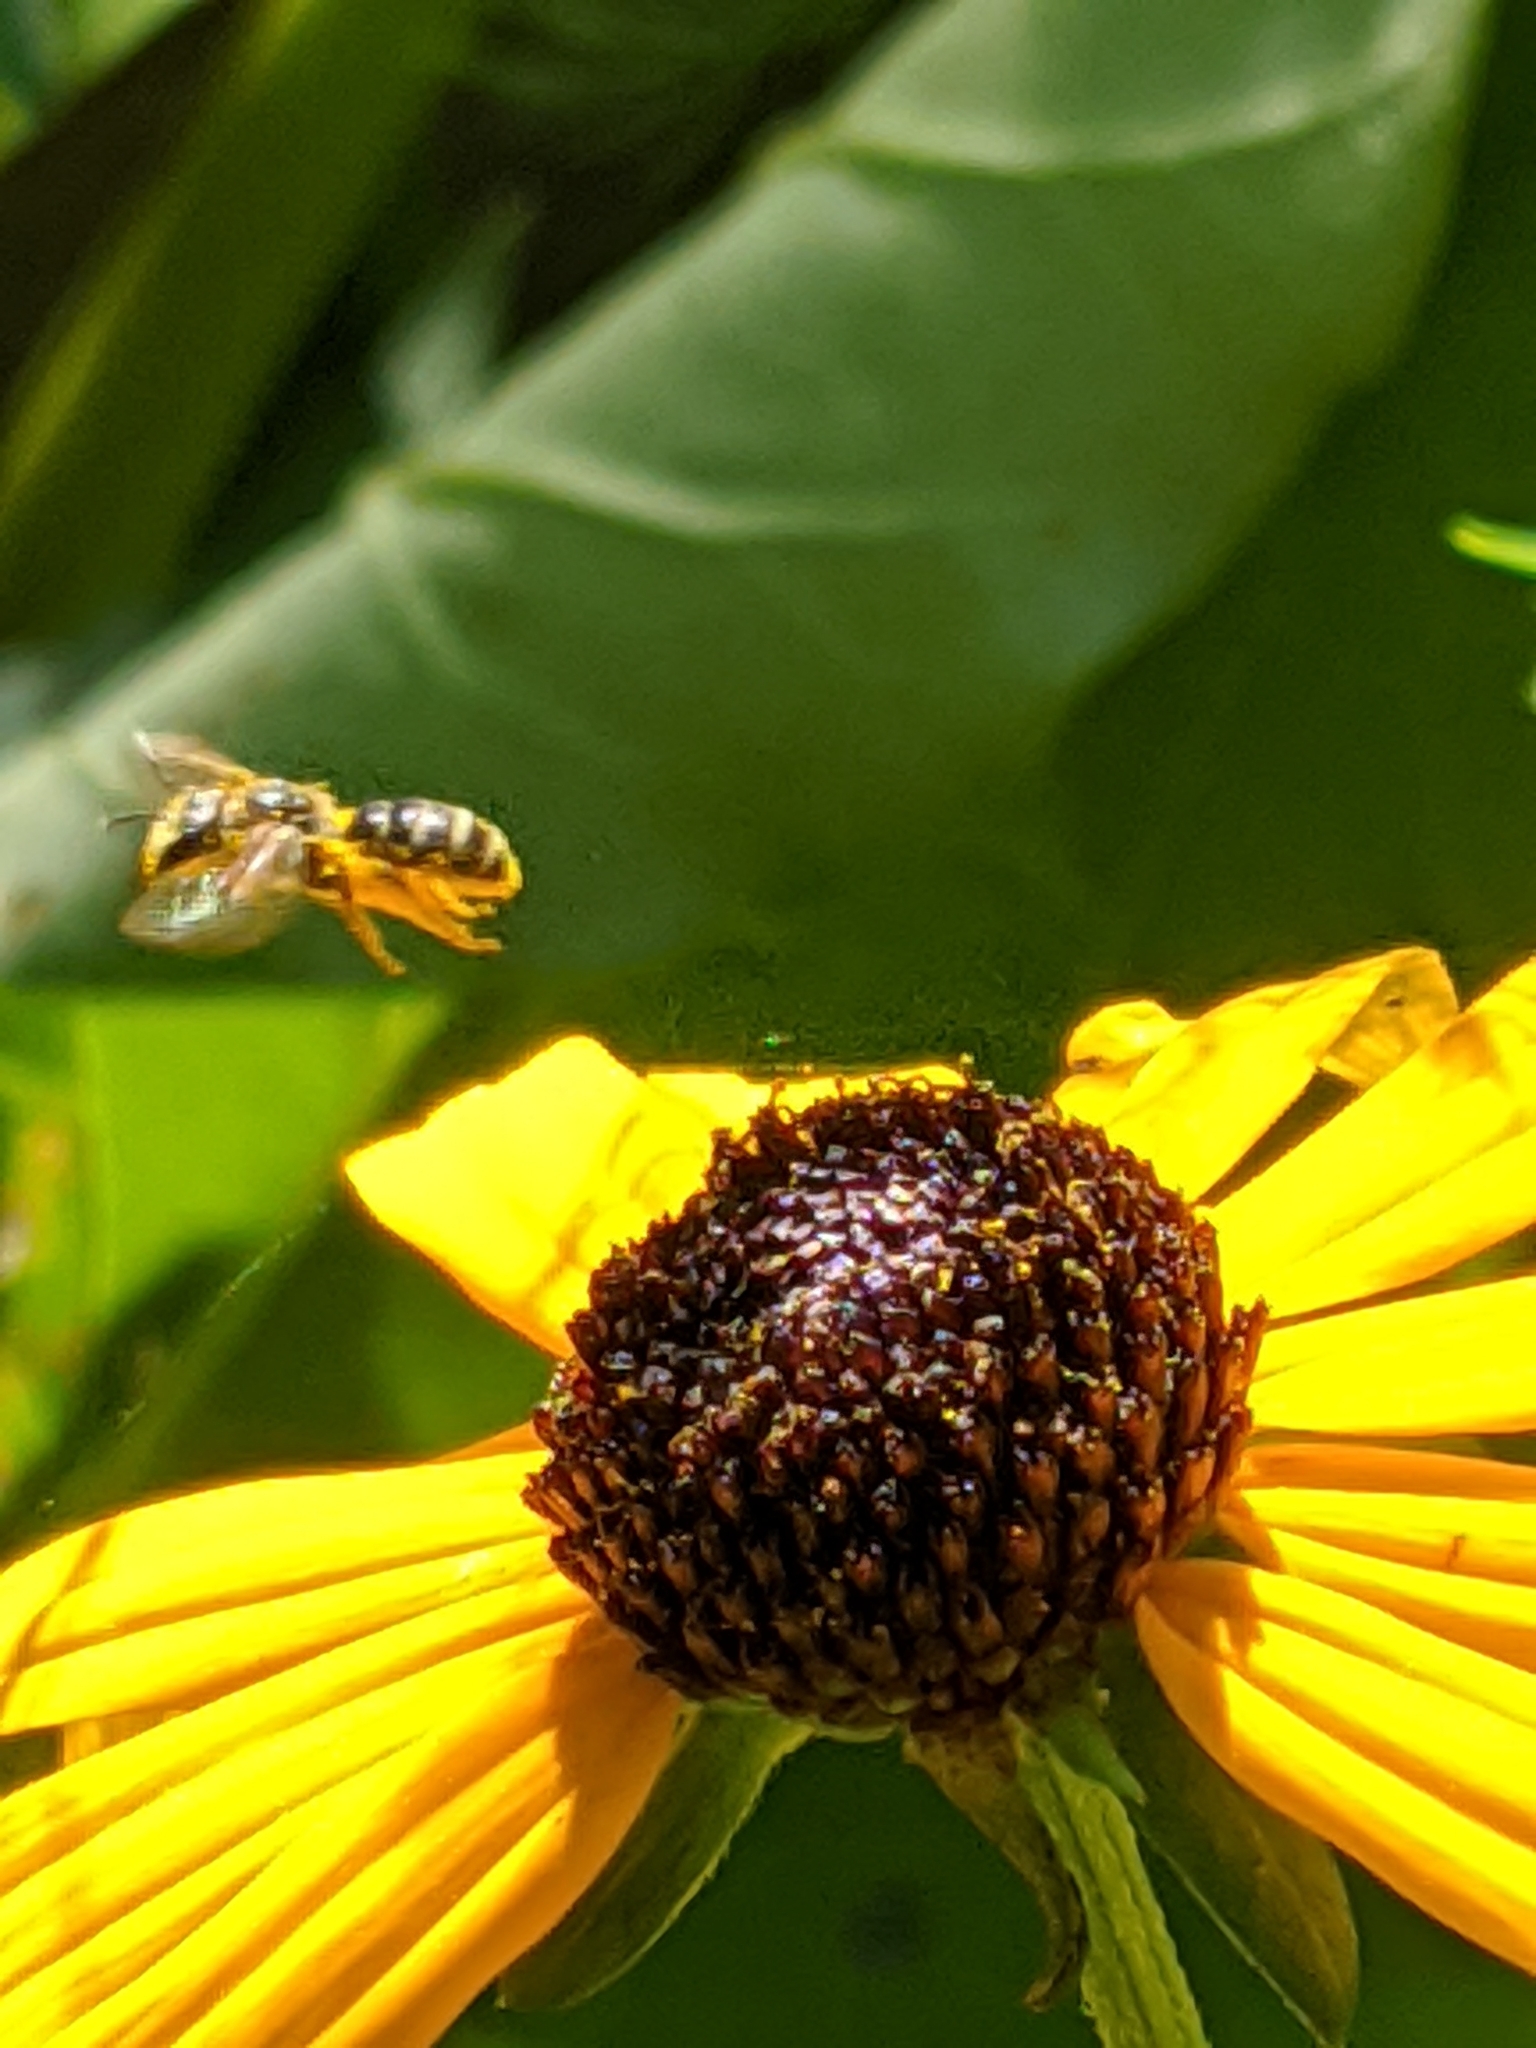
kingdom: Animalia
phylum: Arthropoda
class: Insecta
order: Diptera
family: Syrphidae
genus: Eristalis
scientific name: Eristalis transversa
